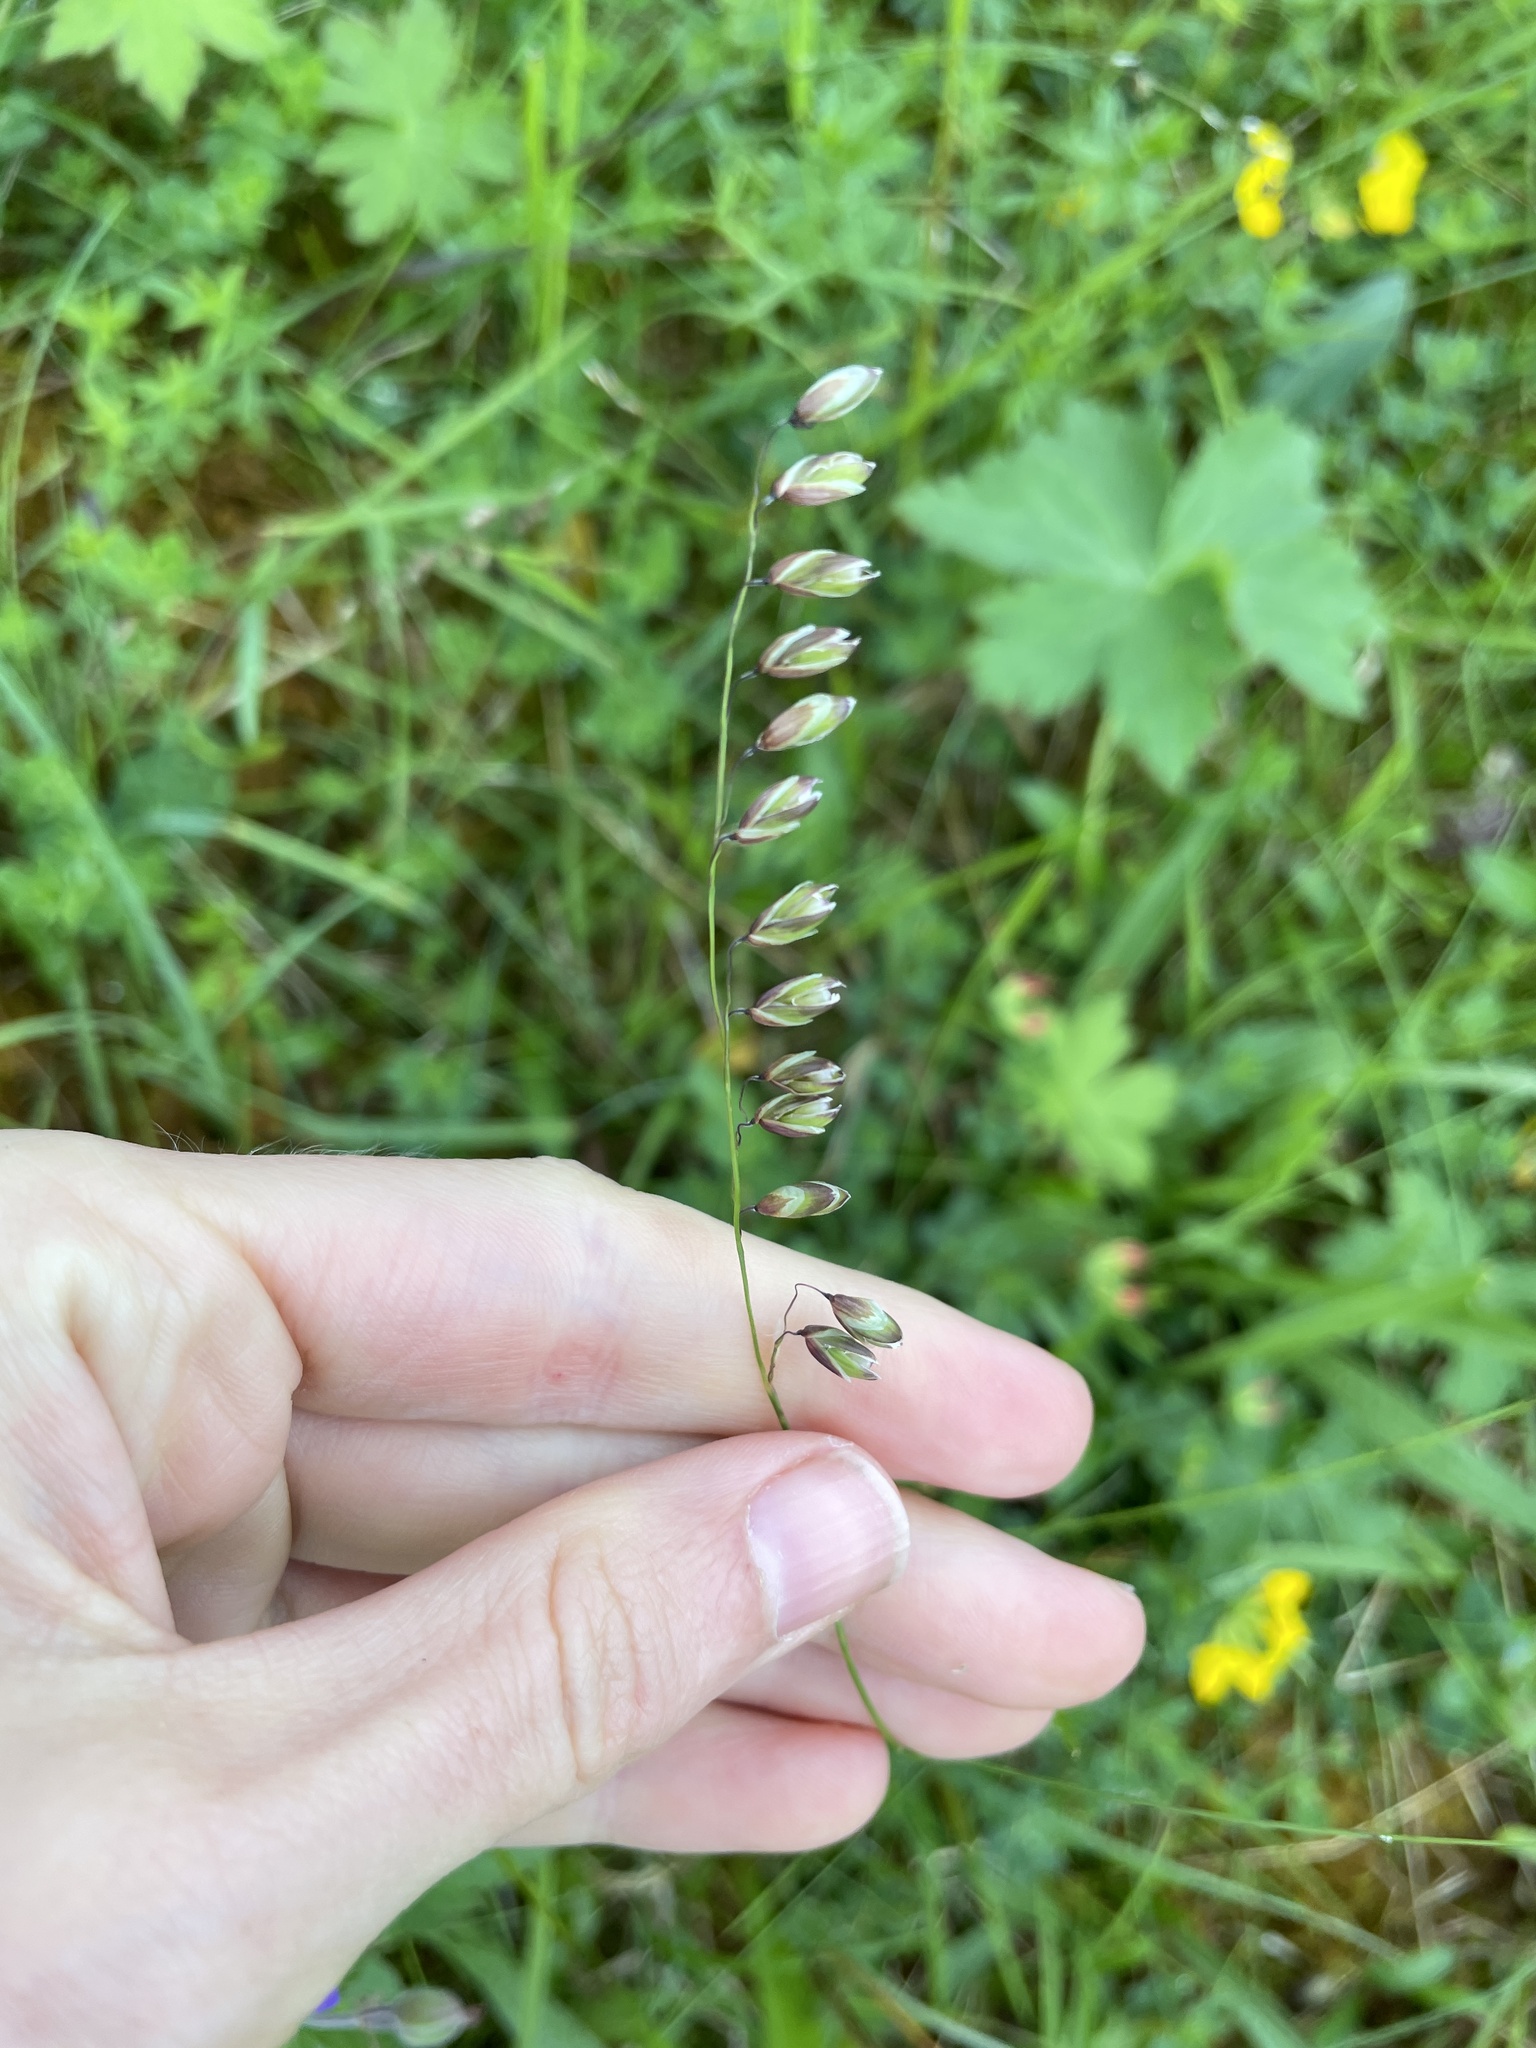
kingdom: Plantae
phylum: Tracheophyta
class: Liliopsida
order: Poales
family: Poaceae
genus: Melica
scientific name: Melica nutans
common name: Mountain melick
